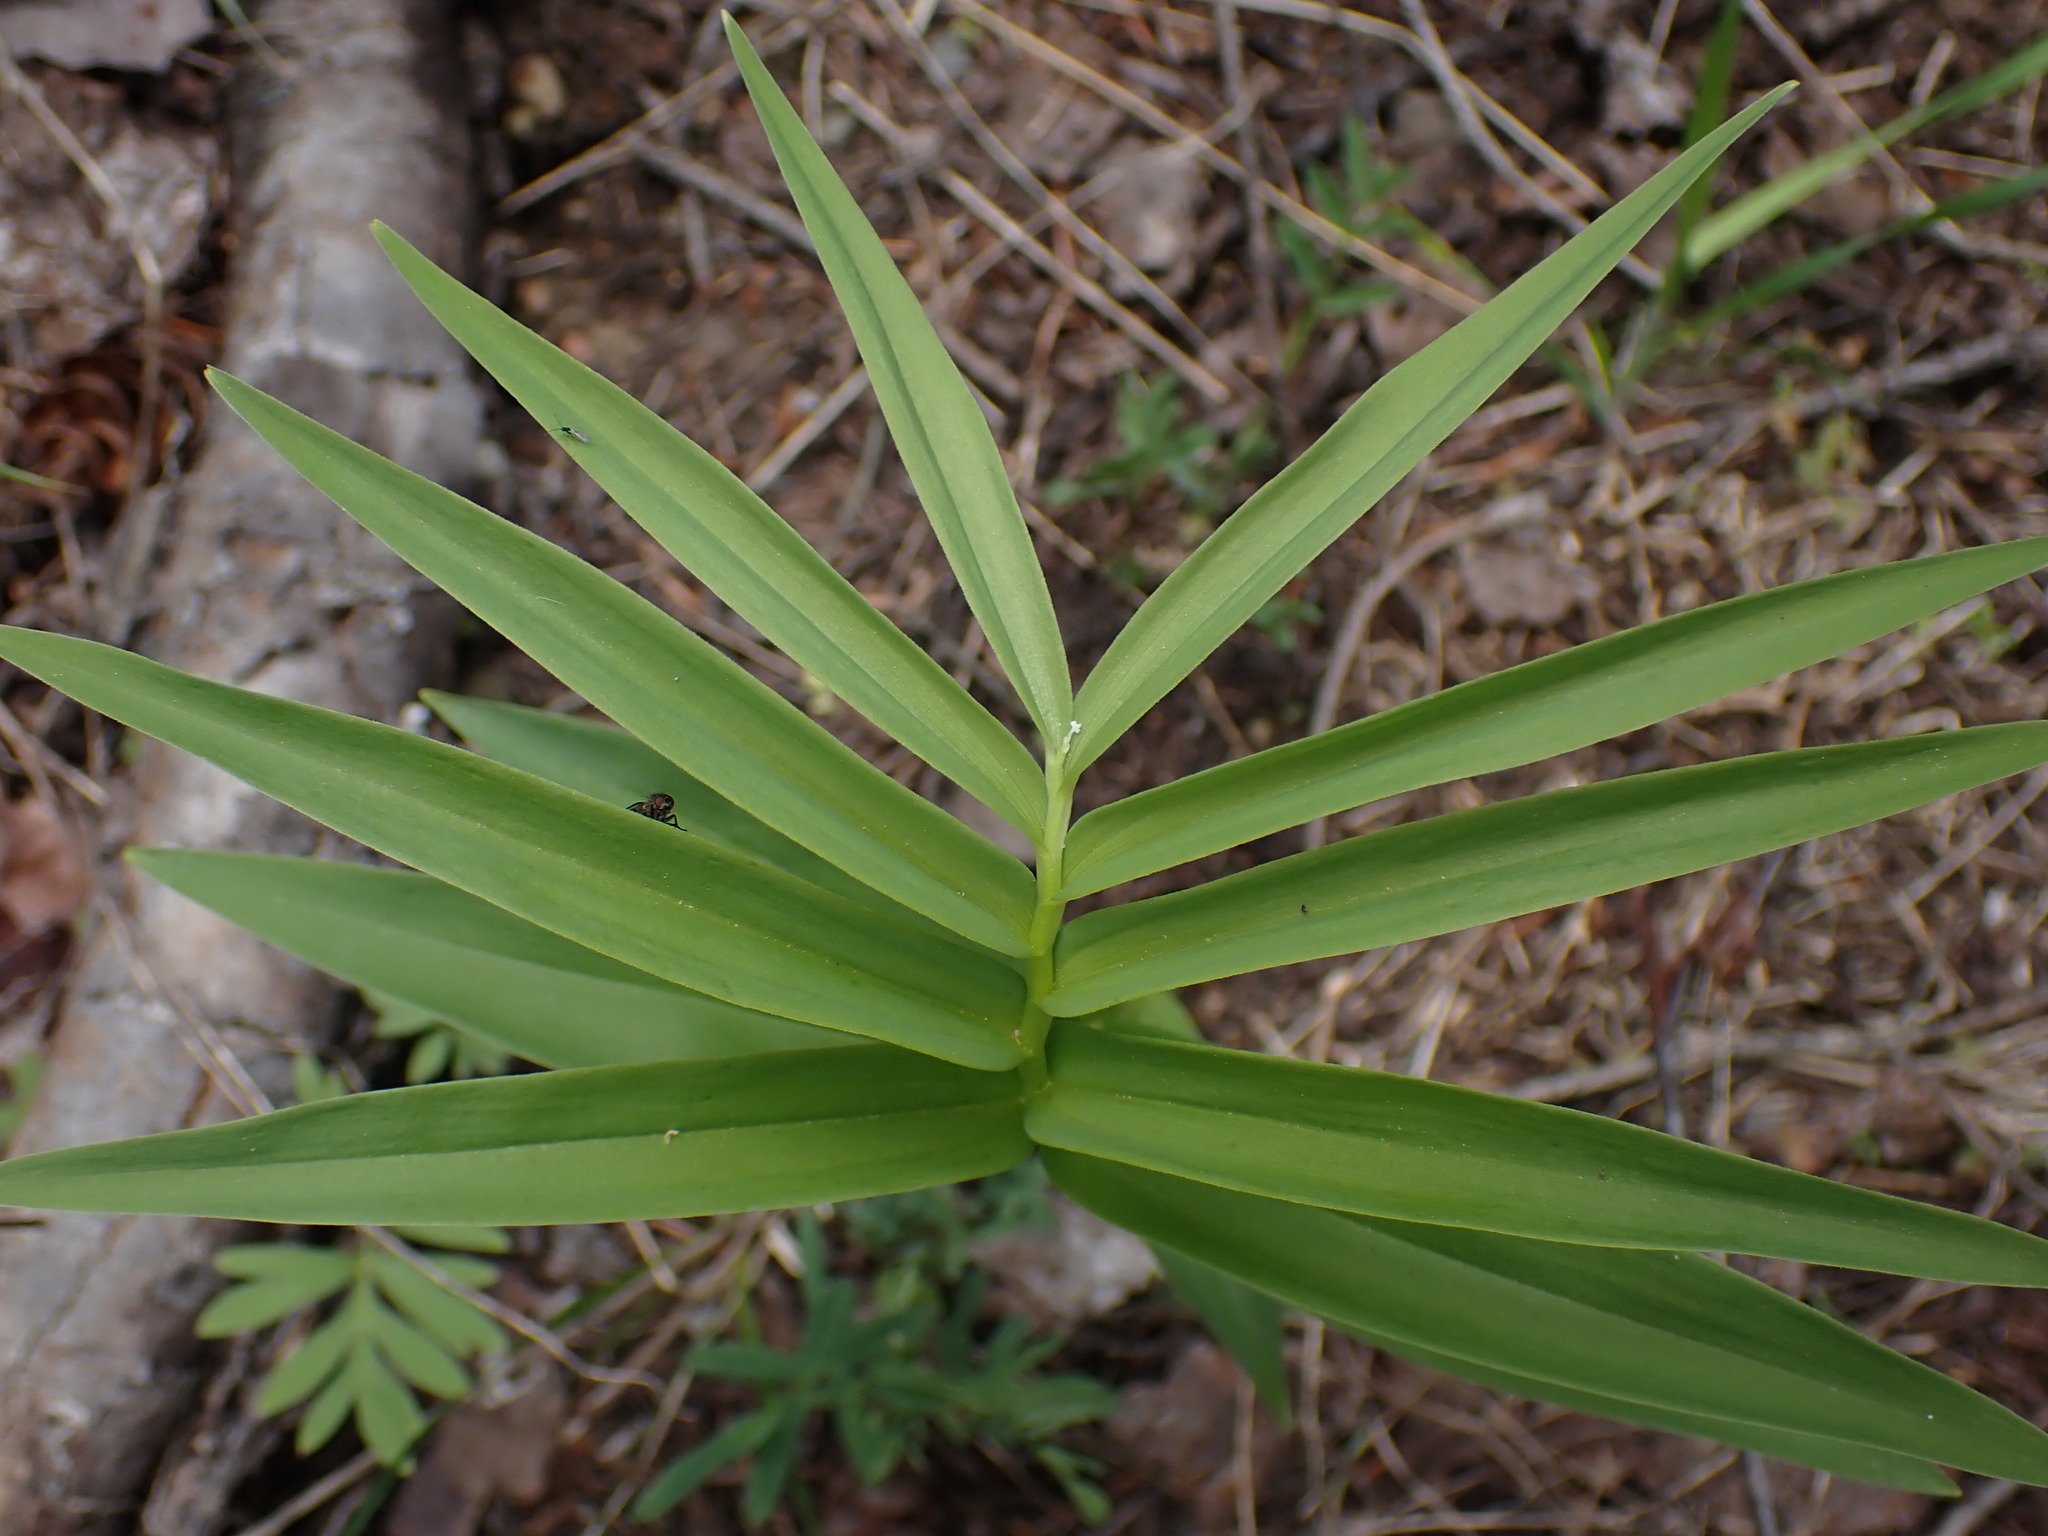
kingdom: Plantae
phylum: Tracheophyta
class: Liliopsida
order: Asparagales
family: Asparagaceae
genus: Maianthemum
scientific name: Maianthemum stellatum
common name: Little false solomon's seal
